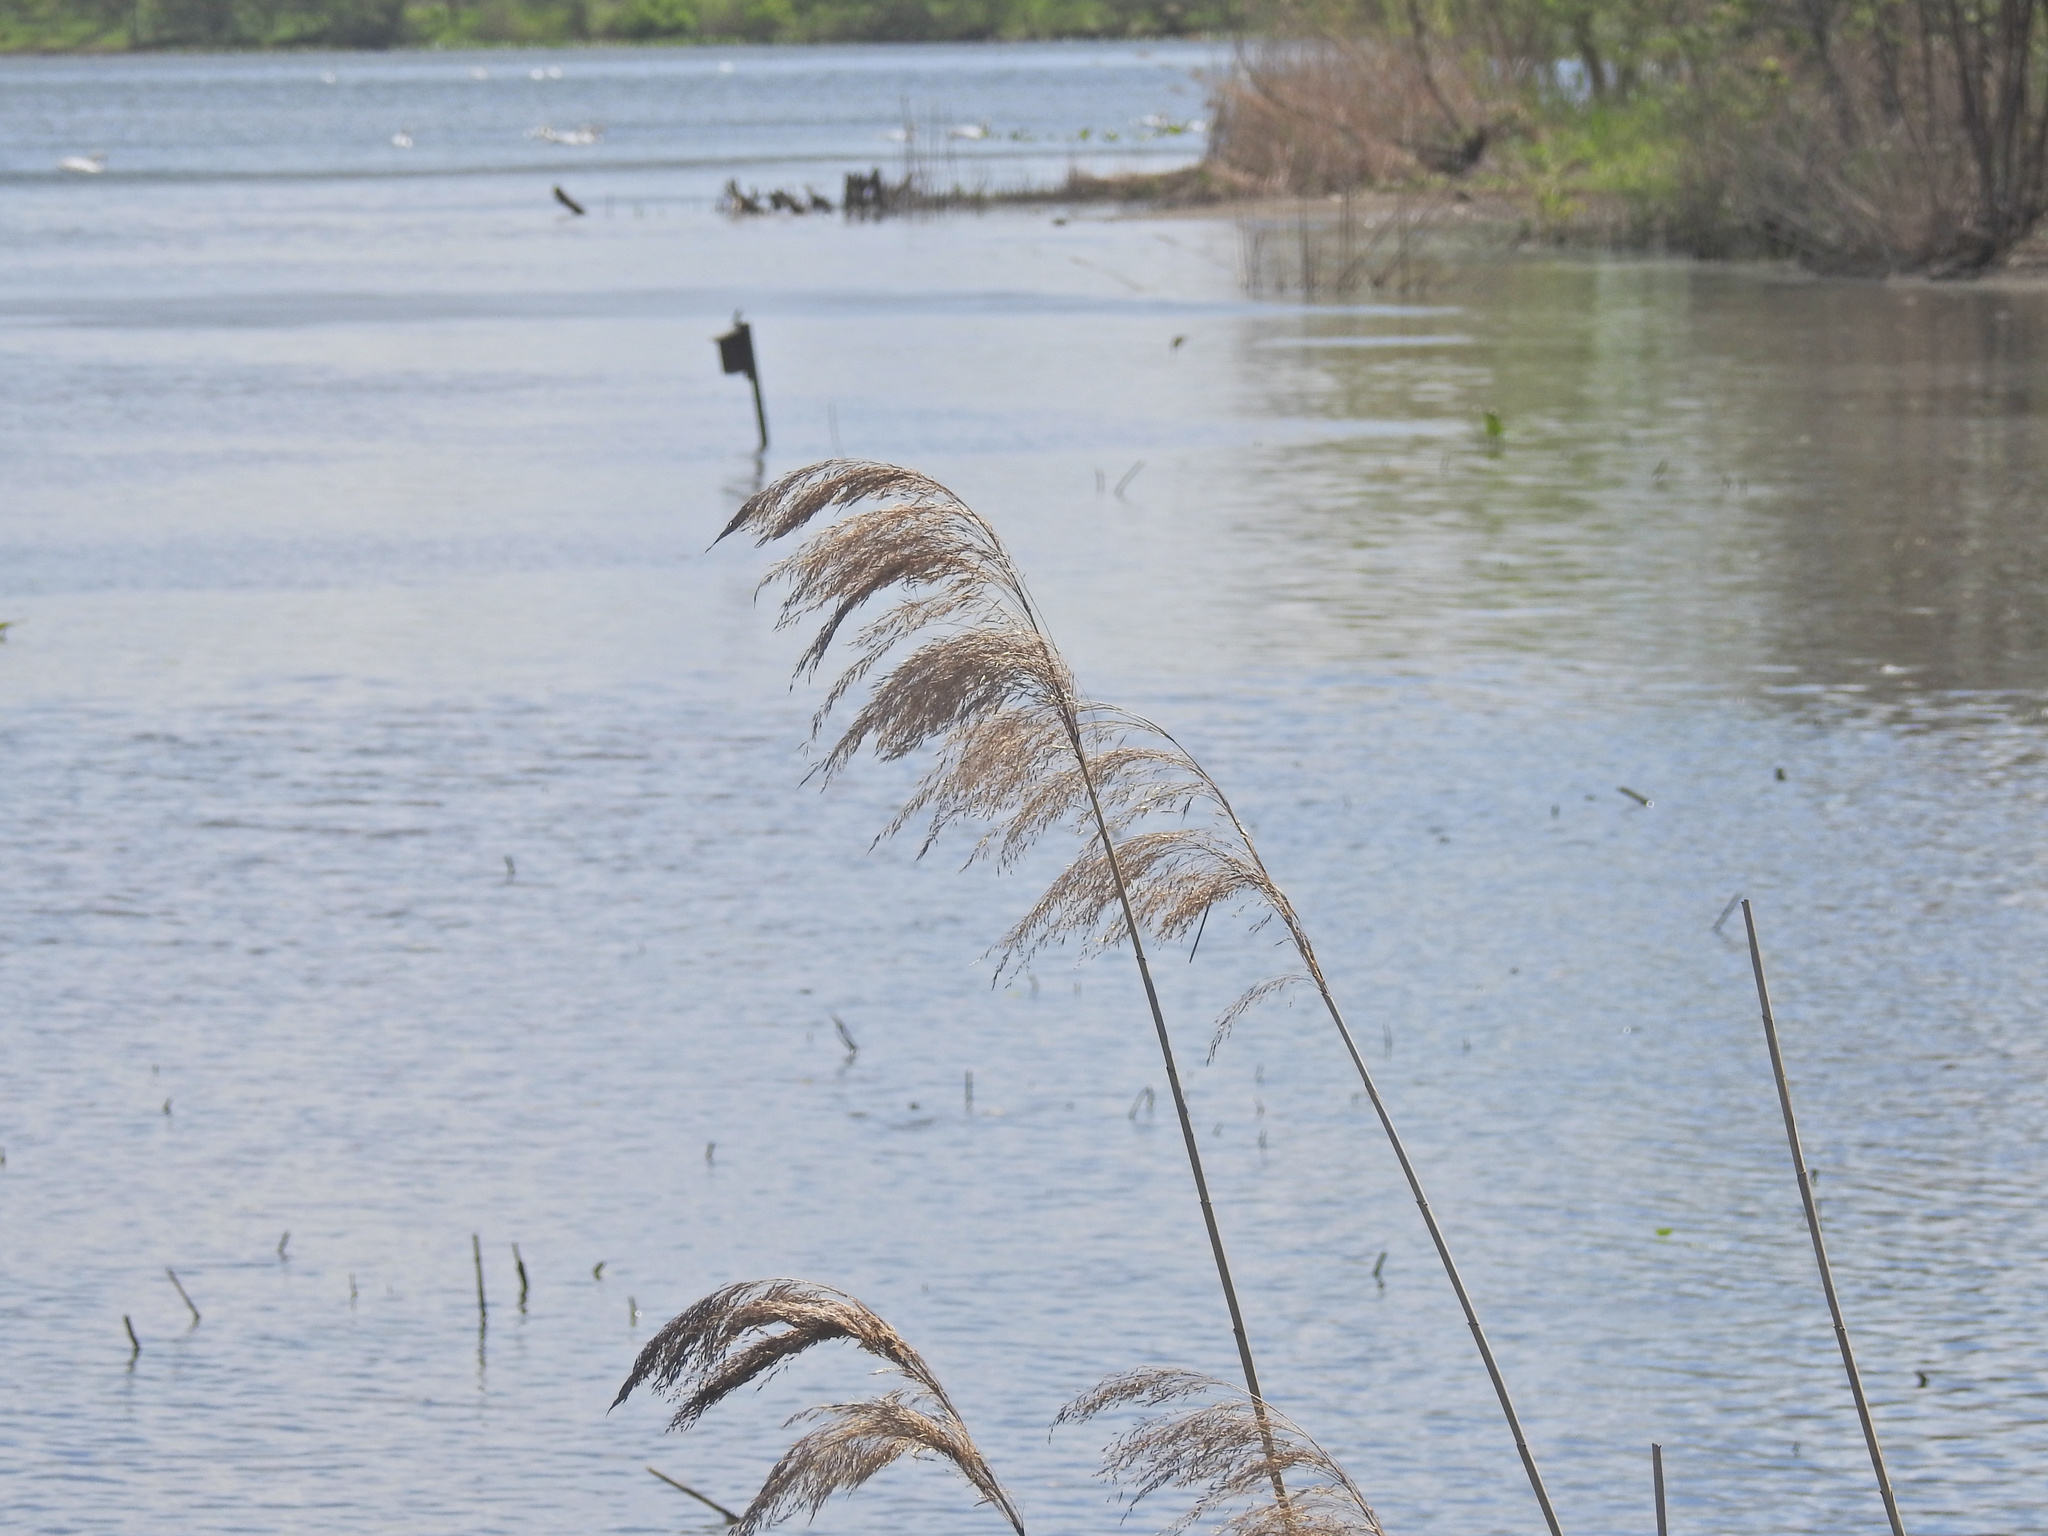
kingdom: Plantae
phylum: Tracheophyta
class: Liliopsida
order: Poales
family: Poaceae
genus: Phragmites
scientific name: Phragmites australis
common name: Common reed
